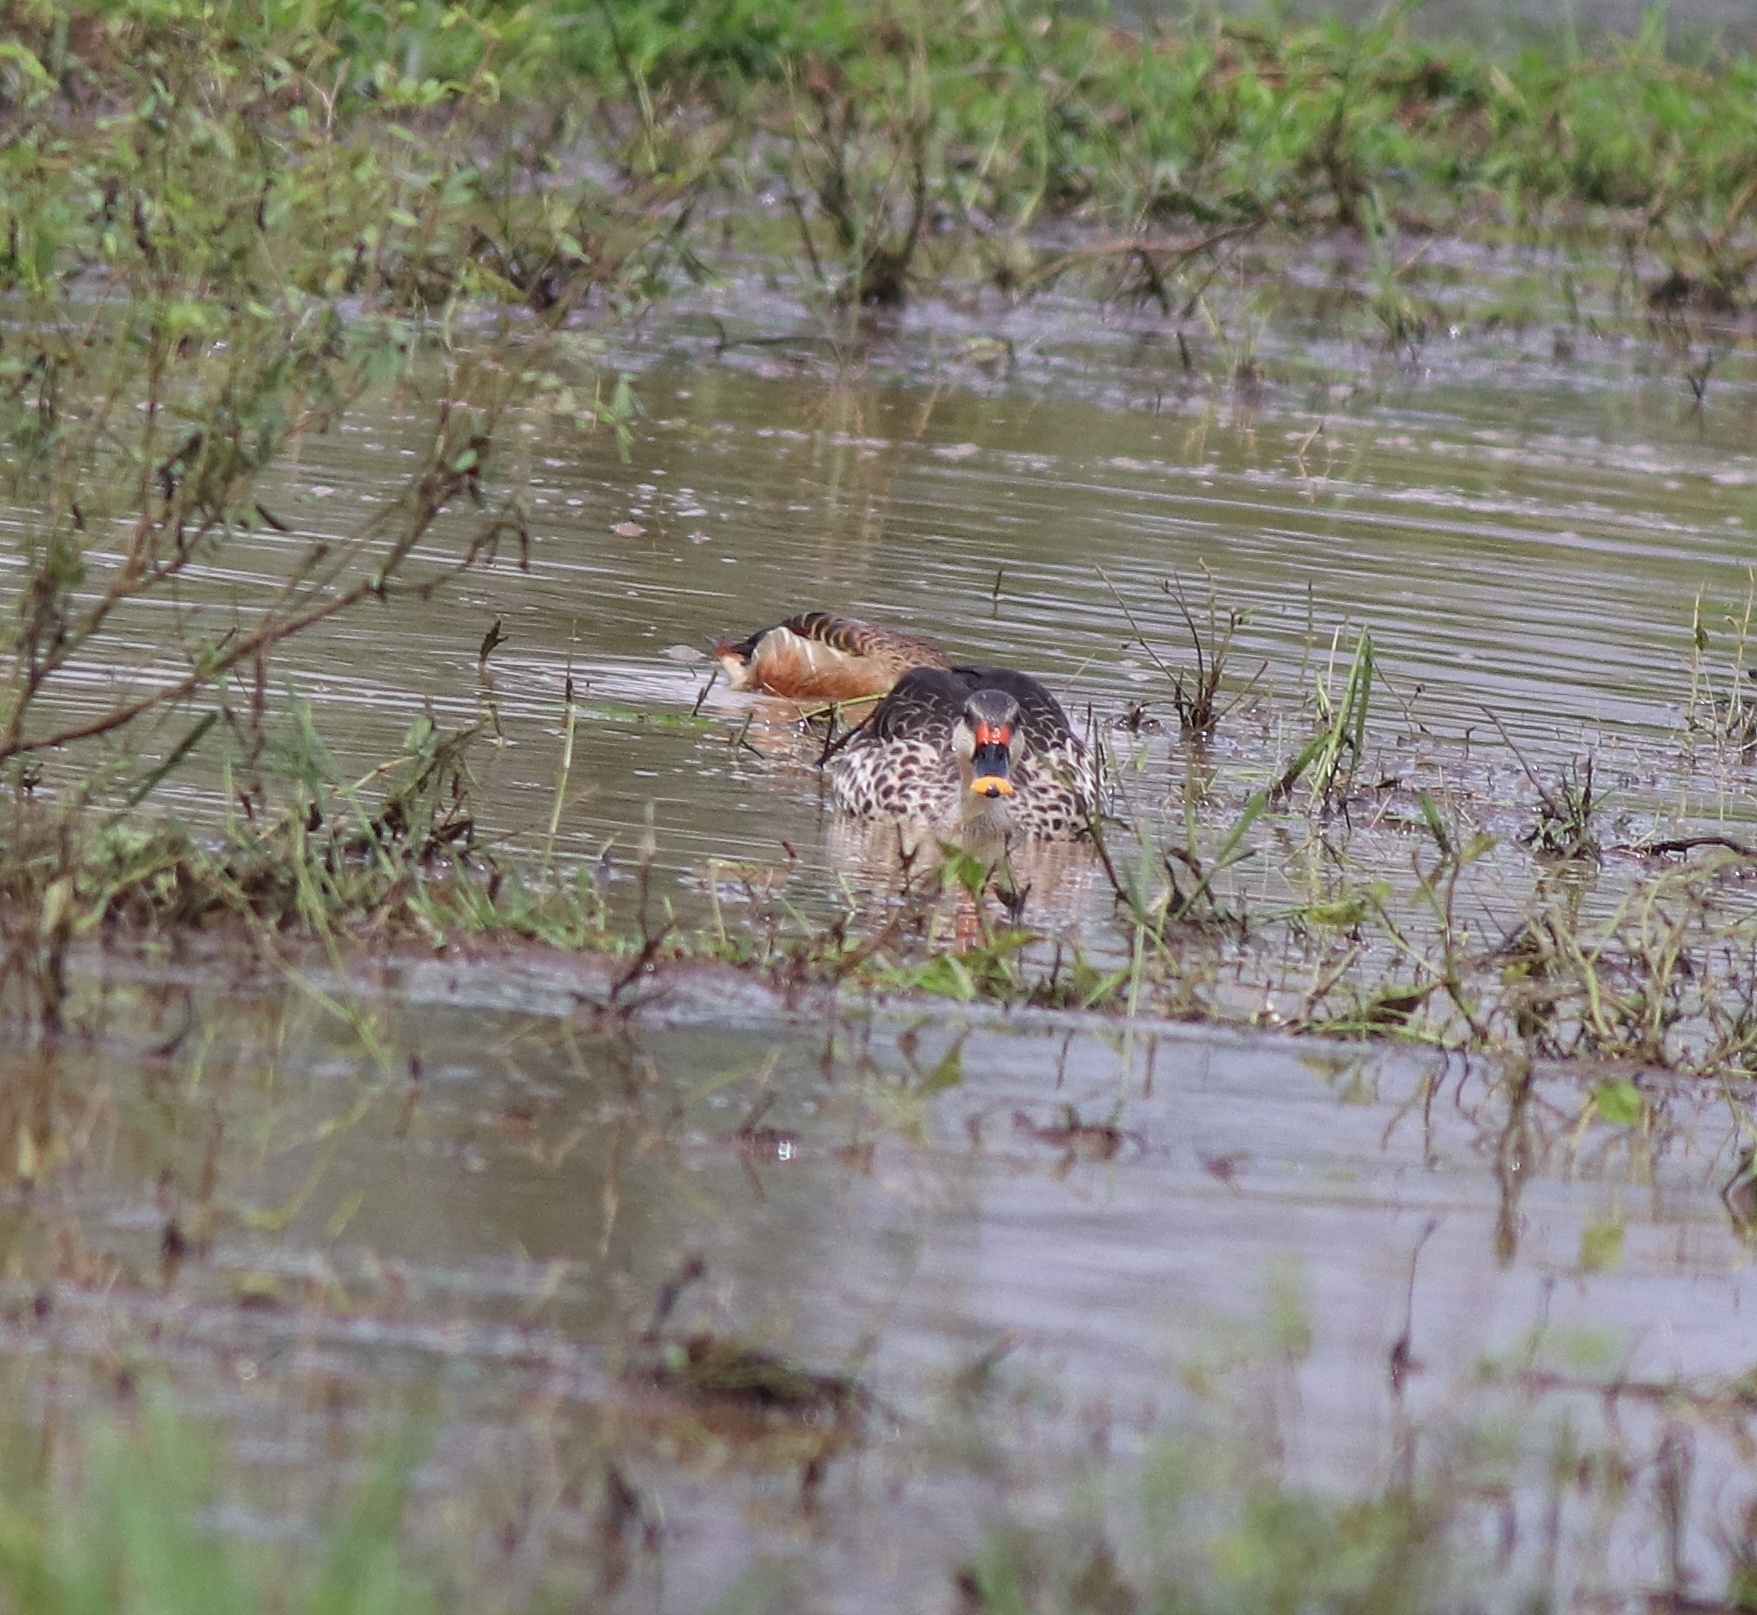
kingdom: Animalia
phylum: Chordata
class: Aves
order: Anseriformes
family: Anatidae
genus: Anas
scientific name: Anas poecilorhyncha
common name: Indian spot-billed duck
